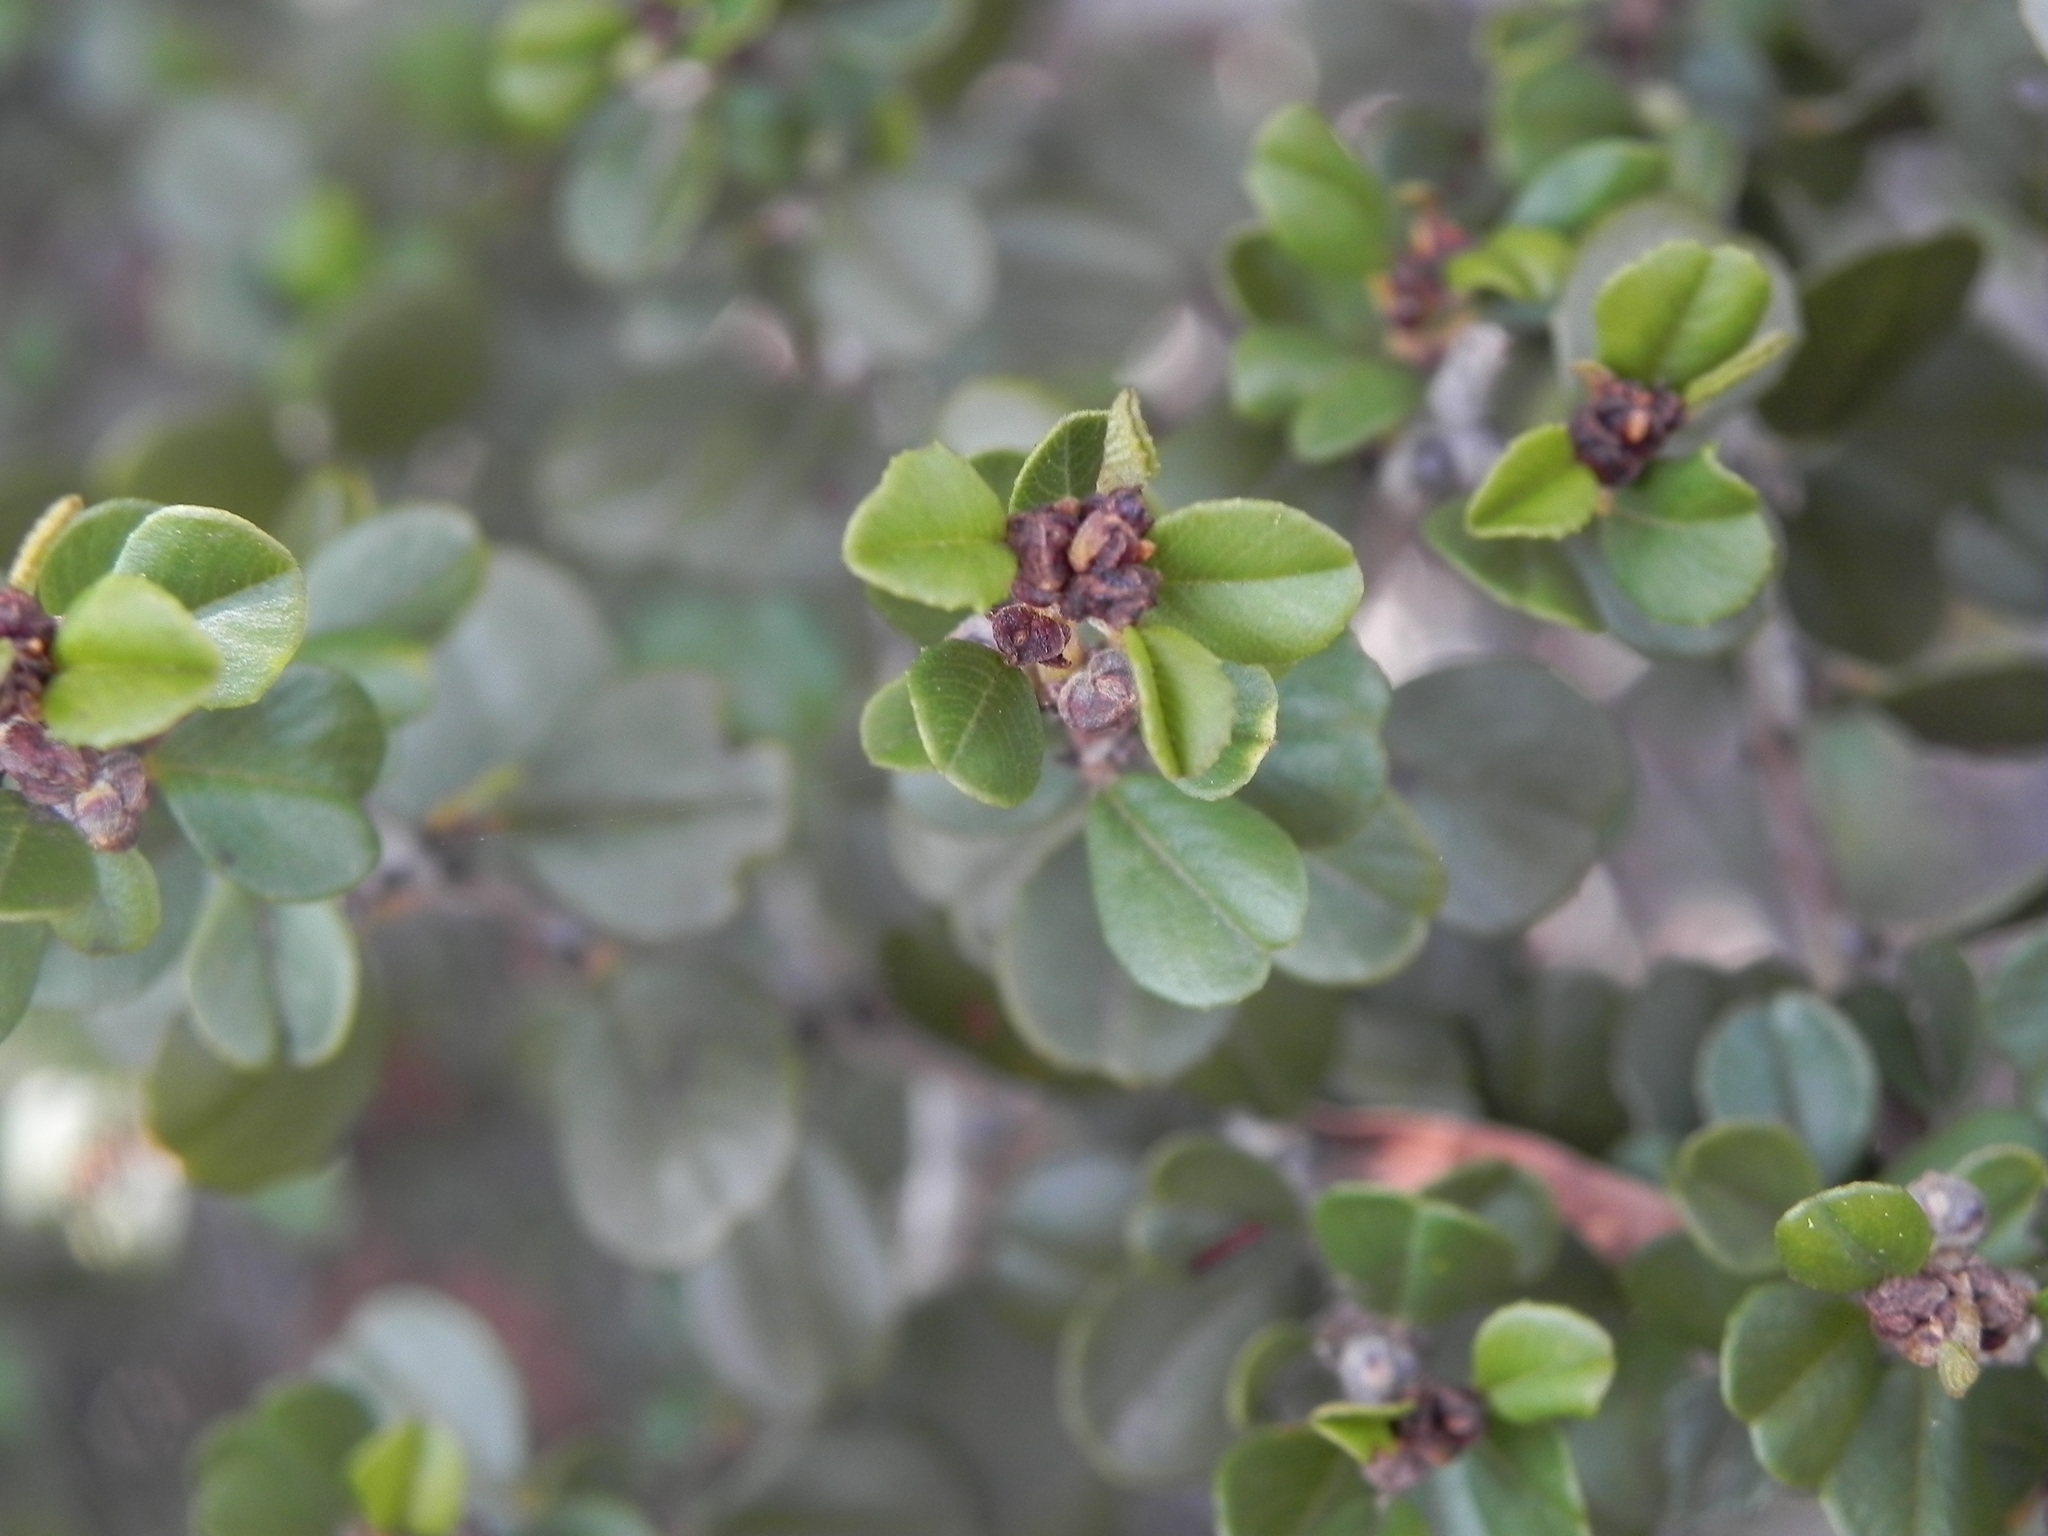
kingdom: Plantae
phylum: Tracheophyta
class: Magnoliopsida
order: Rosales
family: Rhamnaceae
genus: Ceanothus
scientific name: Ceanothus verrucosus
